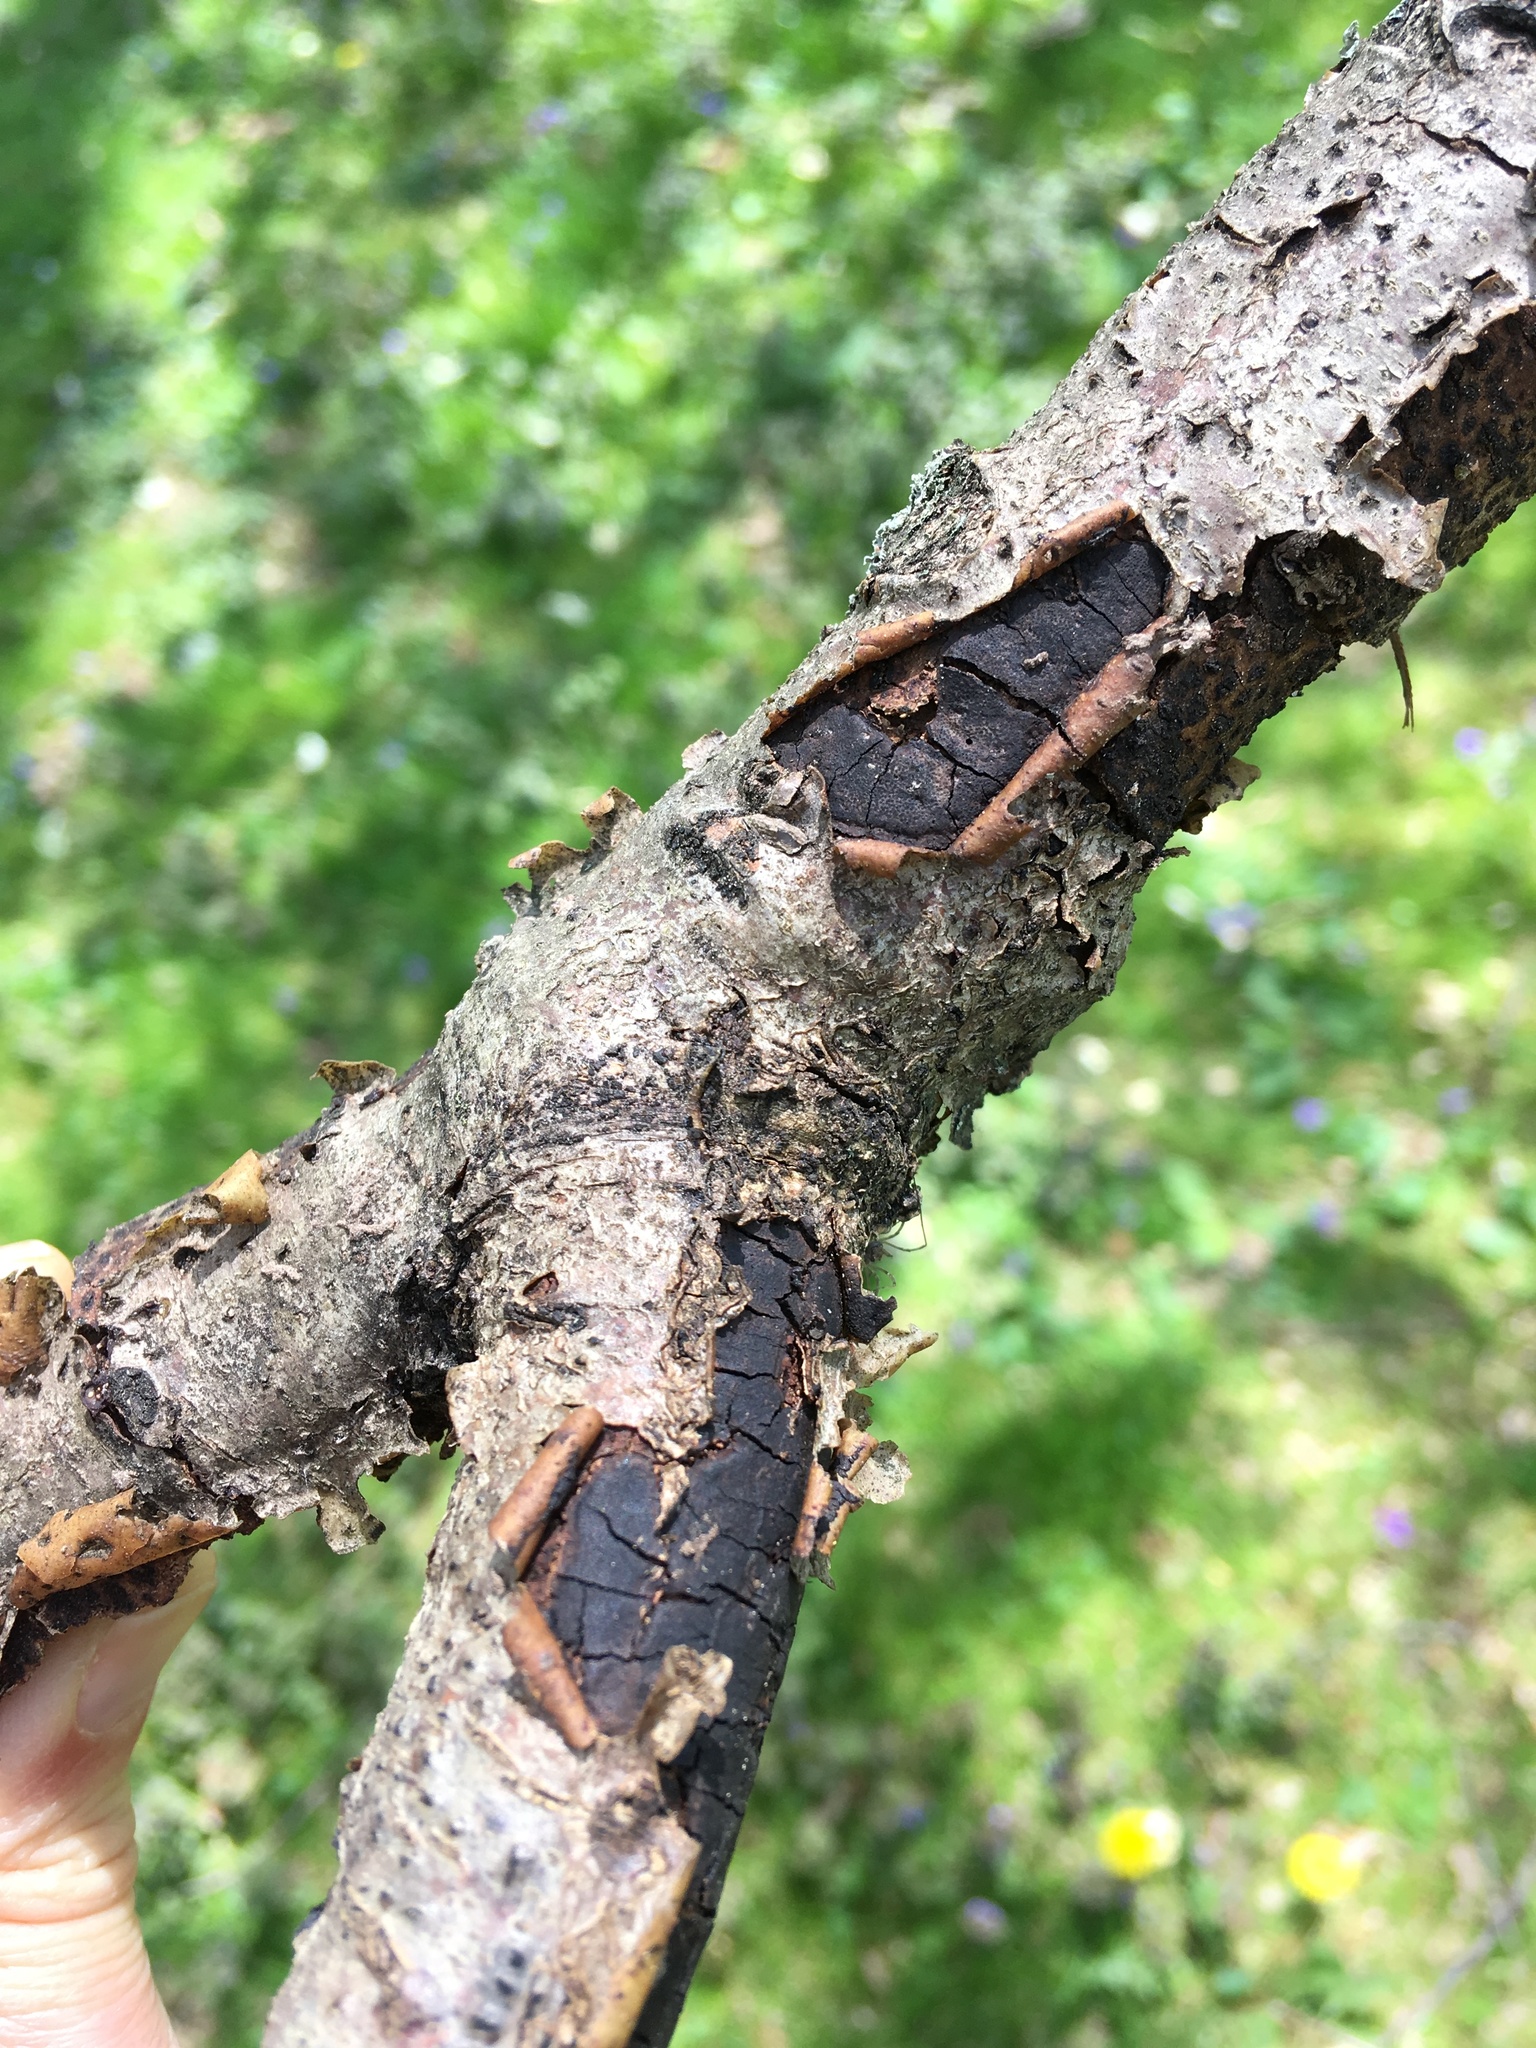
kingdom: Fungi
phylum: Ascomycota
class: Sordariomycetes
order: Xylariales
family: Diatrypaceae
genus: Diatrype
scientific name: Diatrype stigma
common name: Common tarcrust
